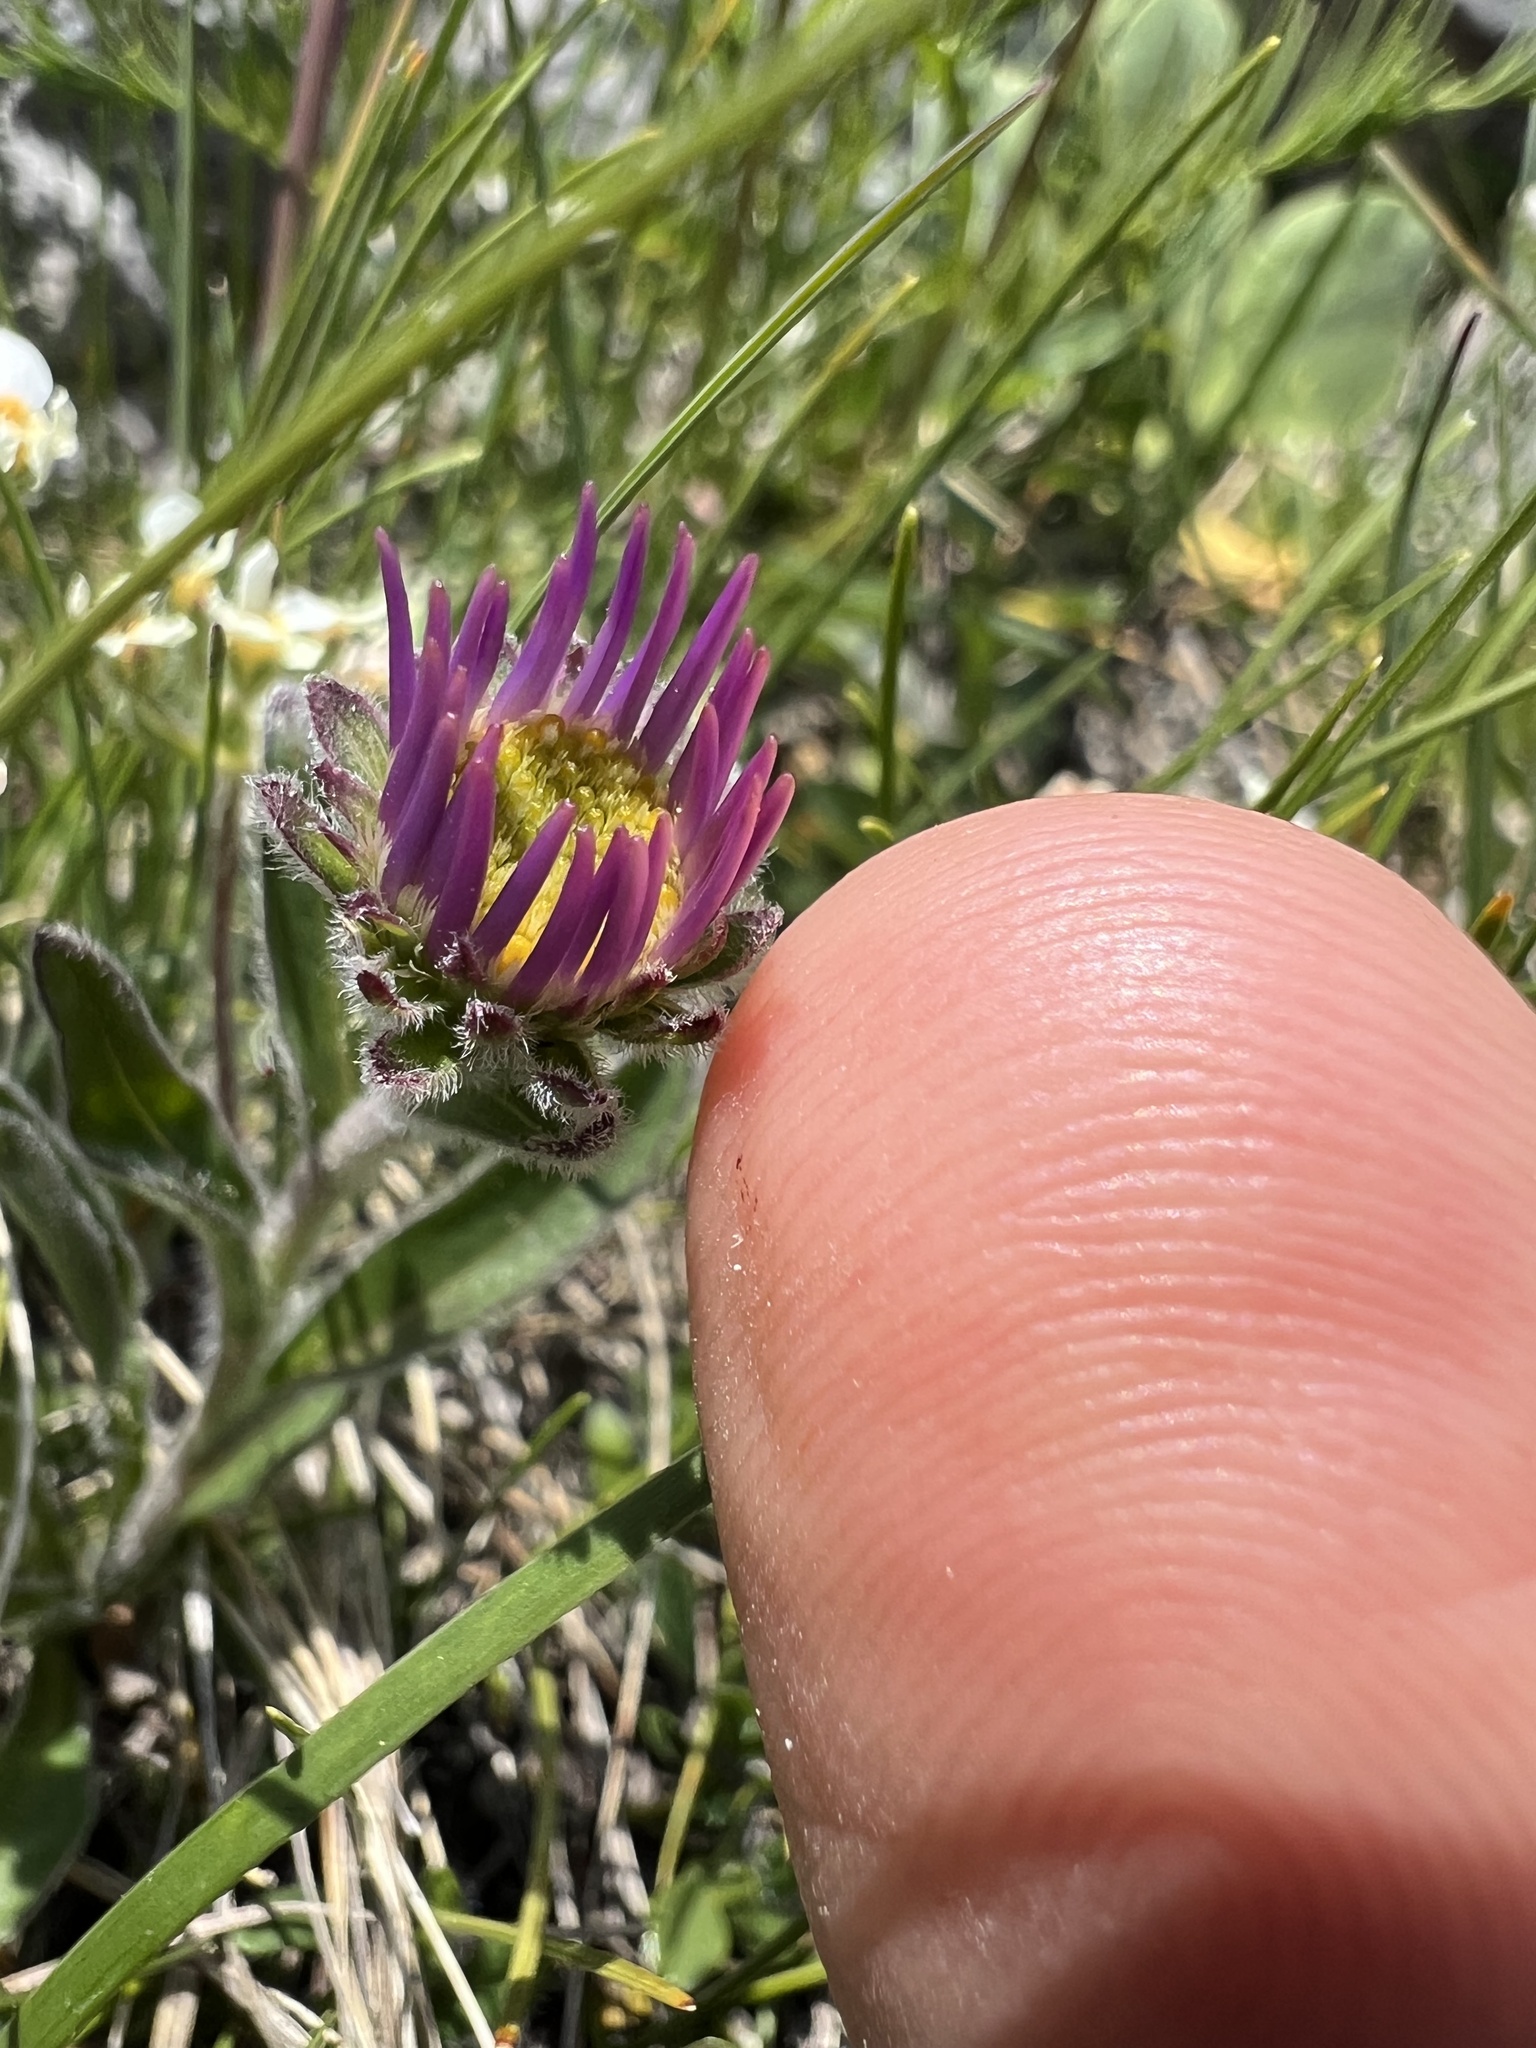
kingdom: Plantae
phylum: Tracheophyta
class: Magnoliopsida
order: Asterales
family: Asteraceae
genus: Aster
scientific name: Aster alpinus
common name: Alpine aster
